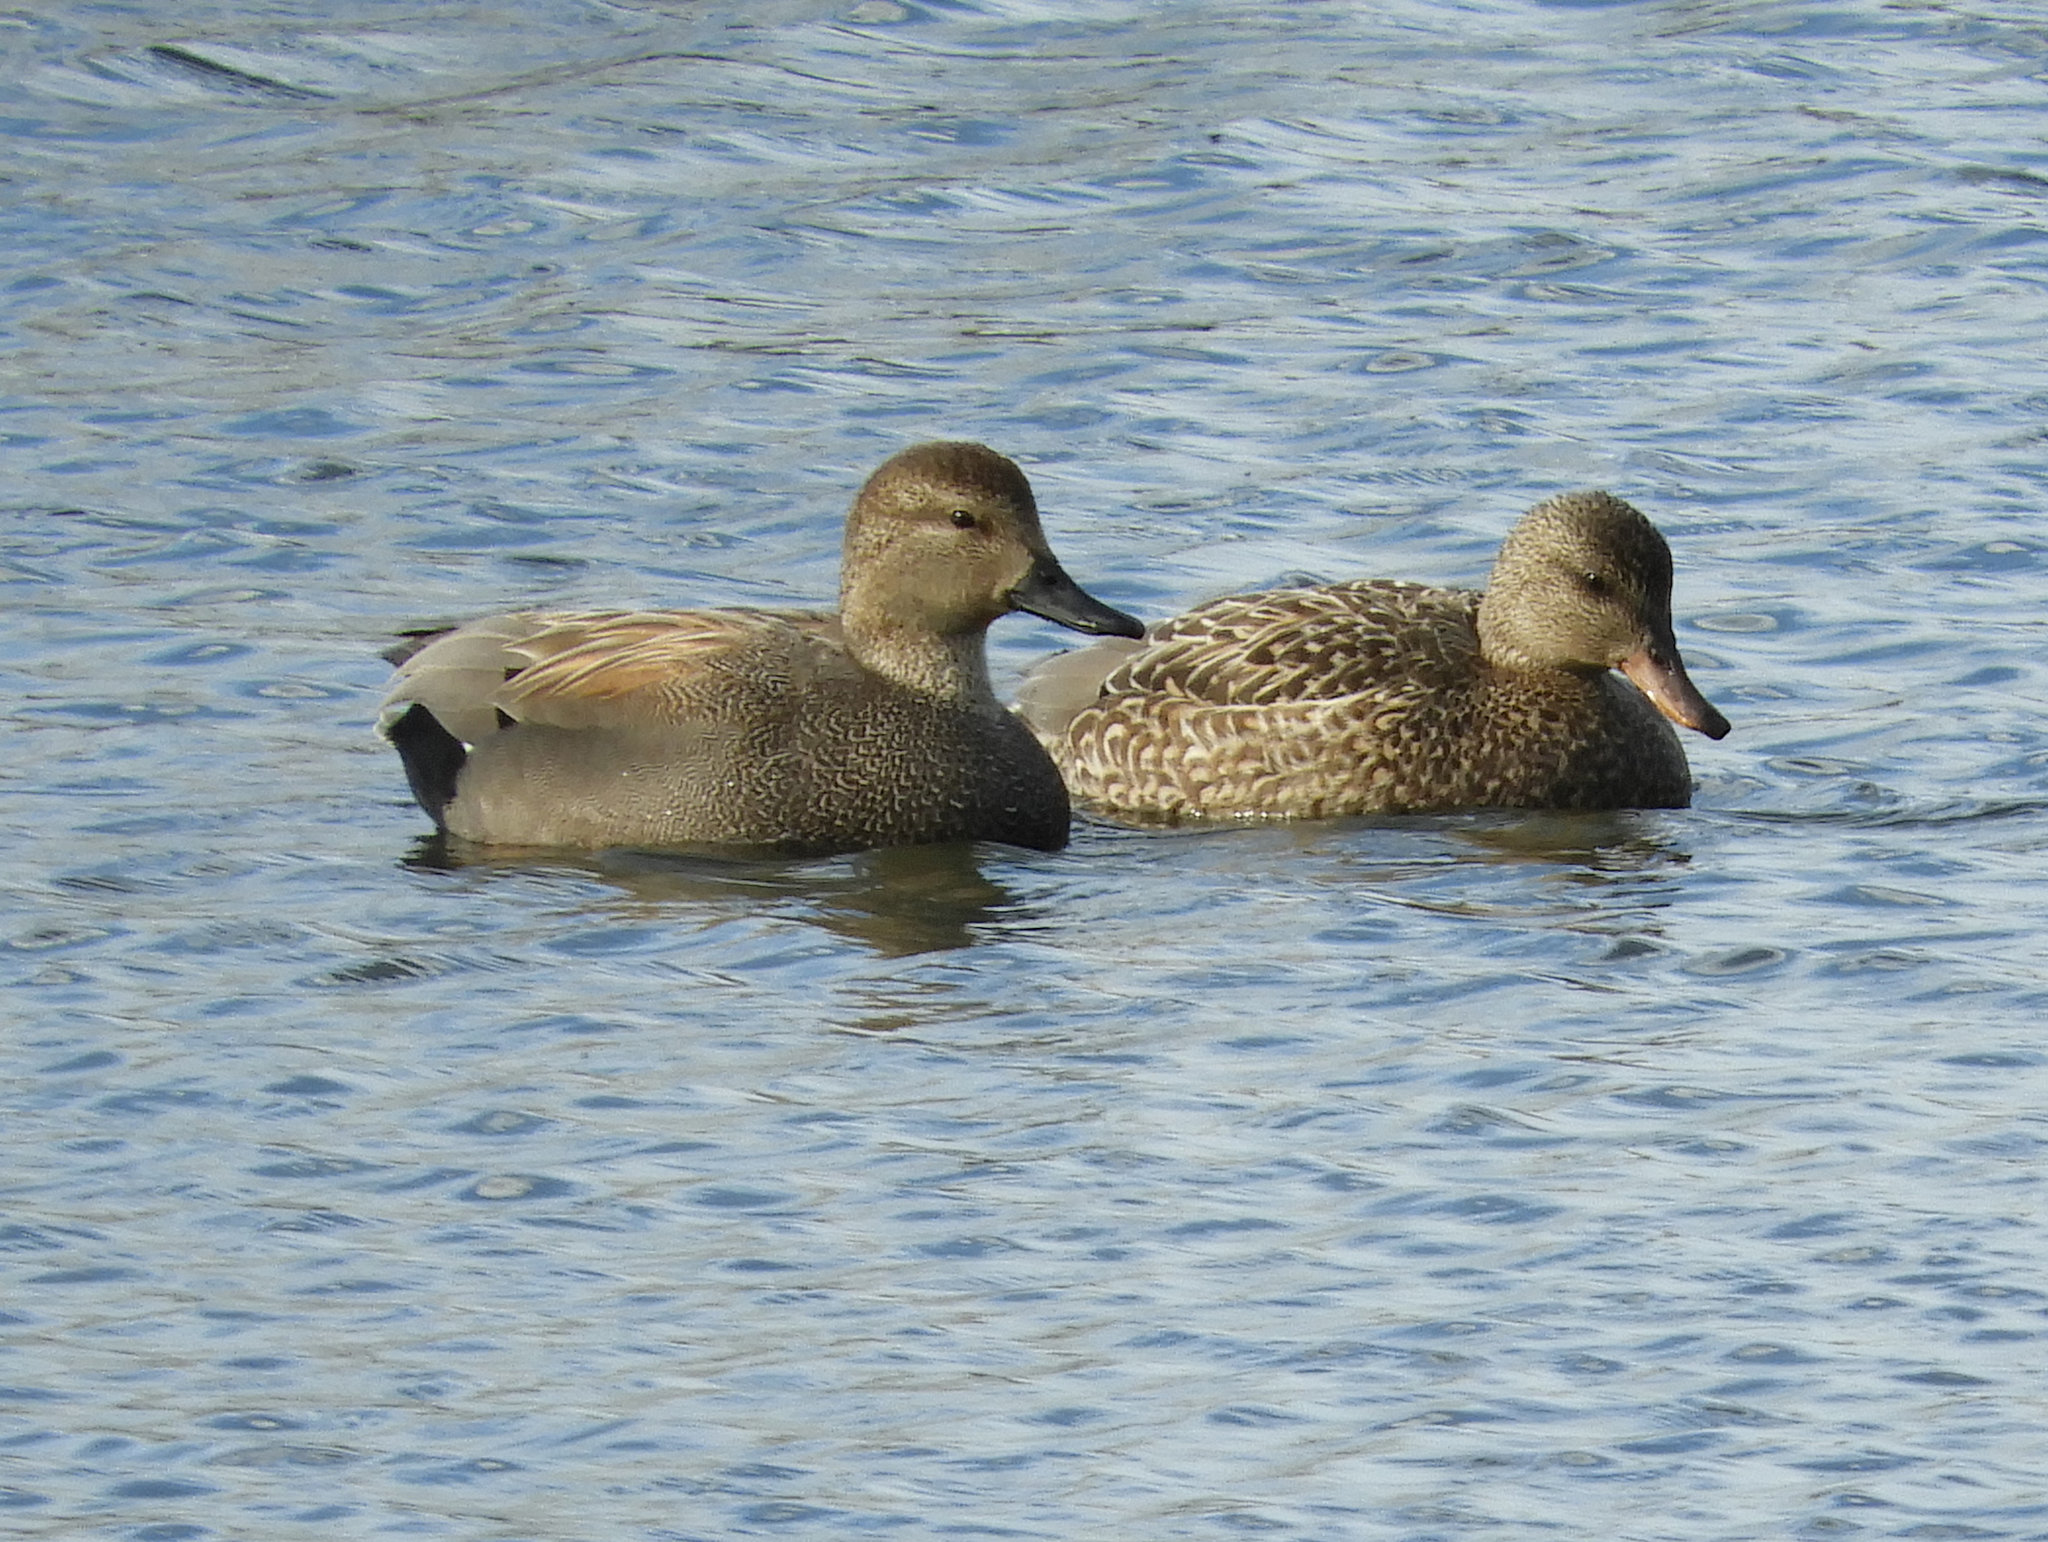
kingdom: Animalia
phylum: Chordata
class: Aves
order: Anseriformes
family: Anatidae
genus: Mareca
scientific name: Mareca strepera
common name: Gadwall
